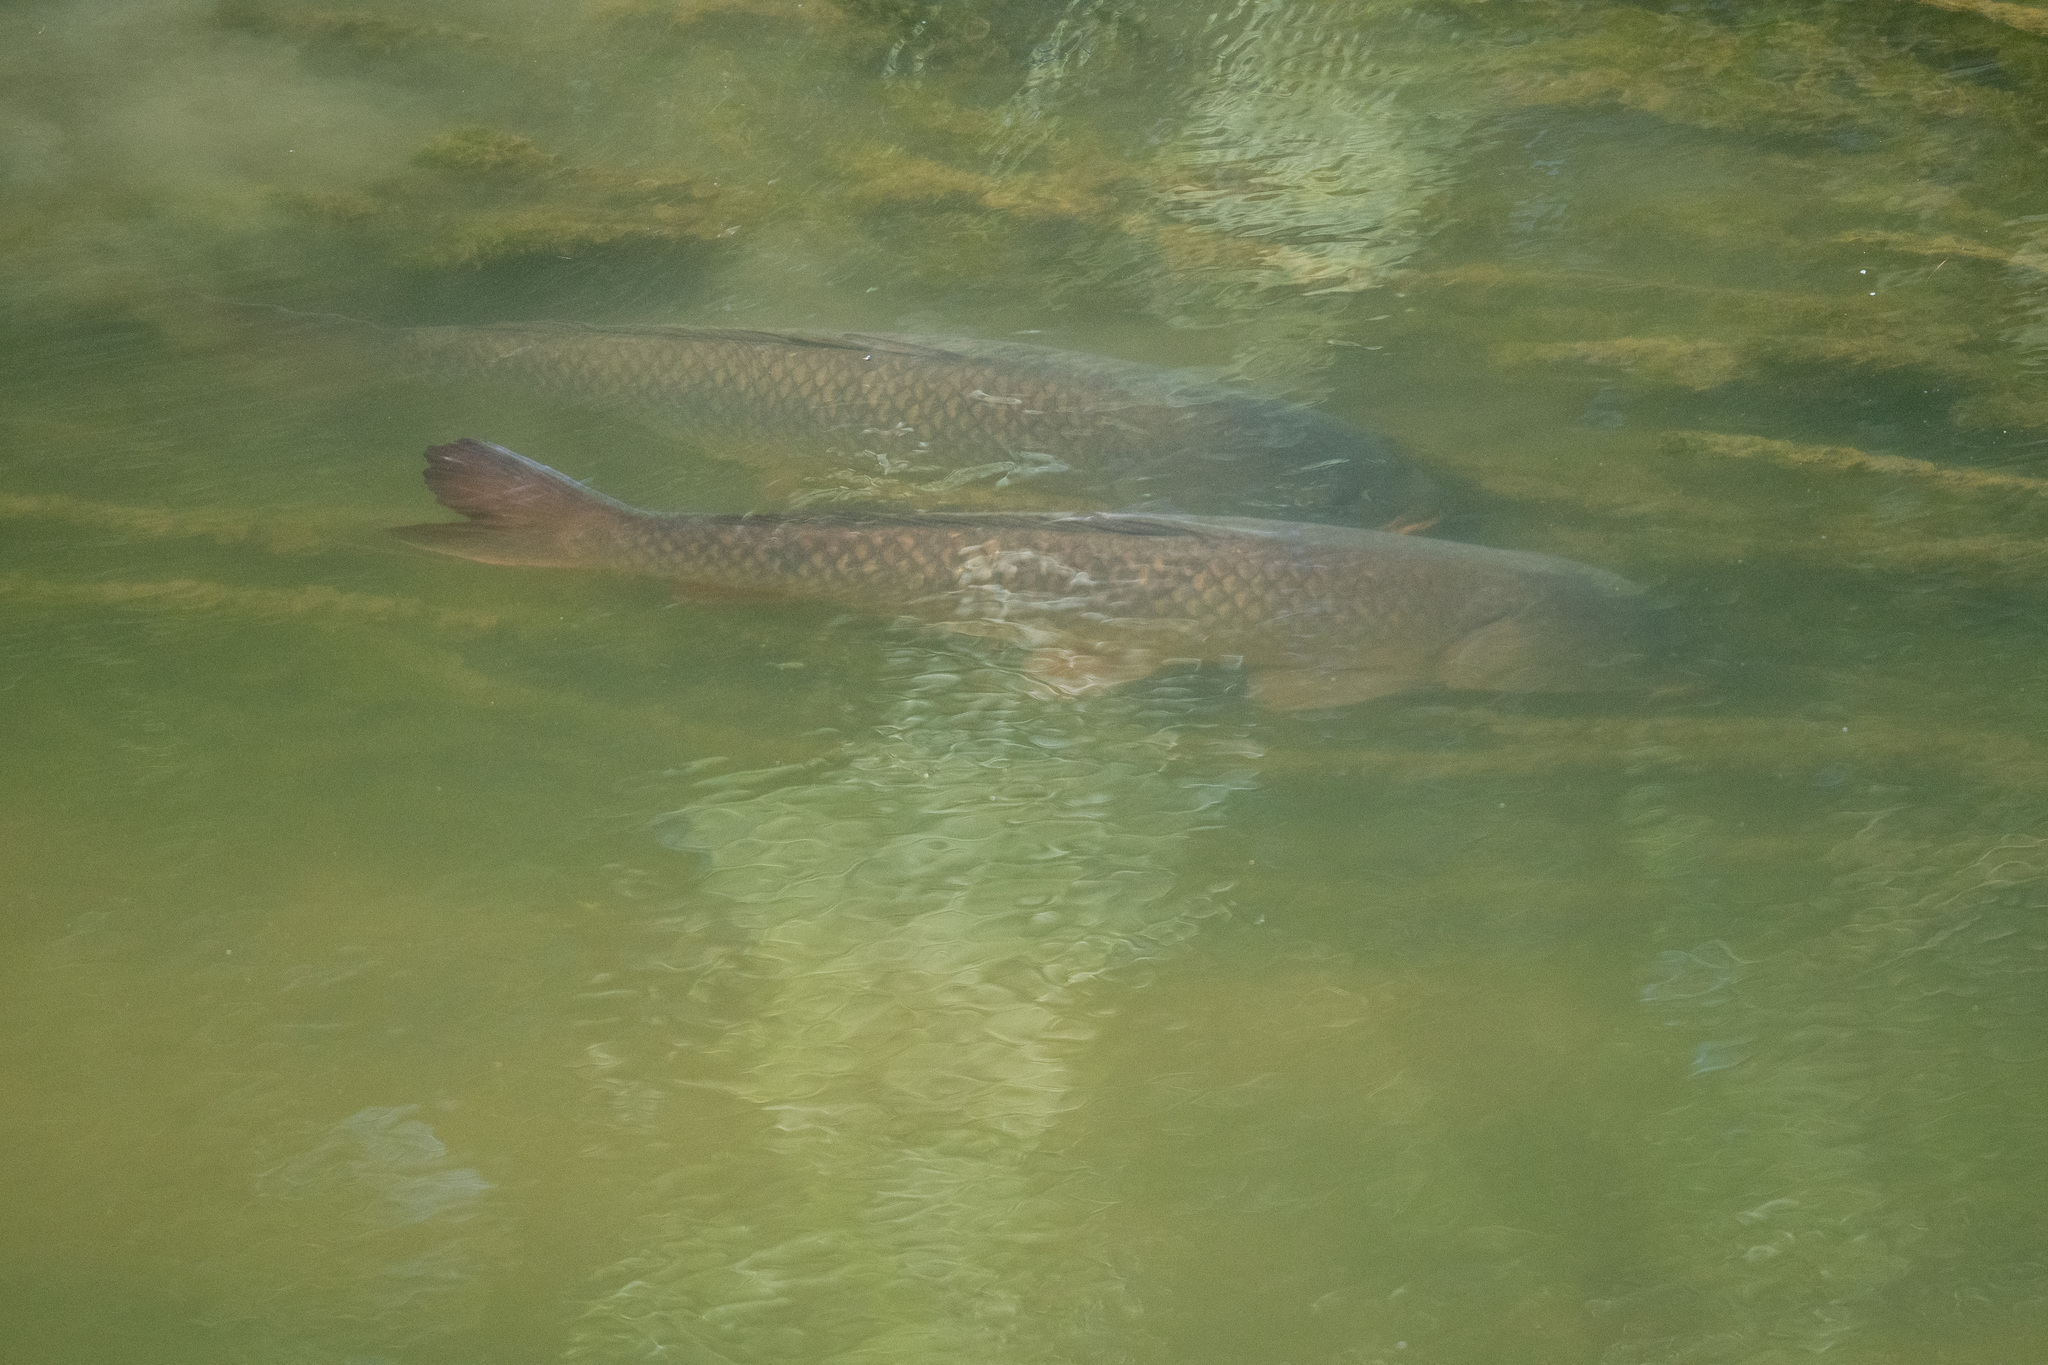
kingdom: Animalia
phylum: Chordata
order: Cypriniformes
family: Cyprinidae
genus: Cyprinus
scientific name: Cyprinus carpio
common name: Common carp
